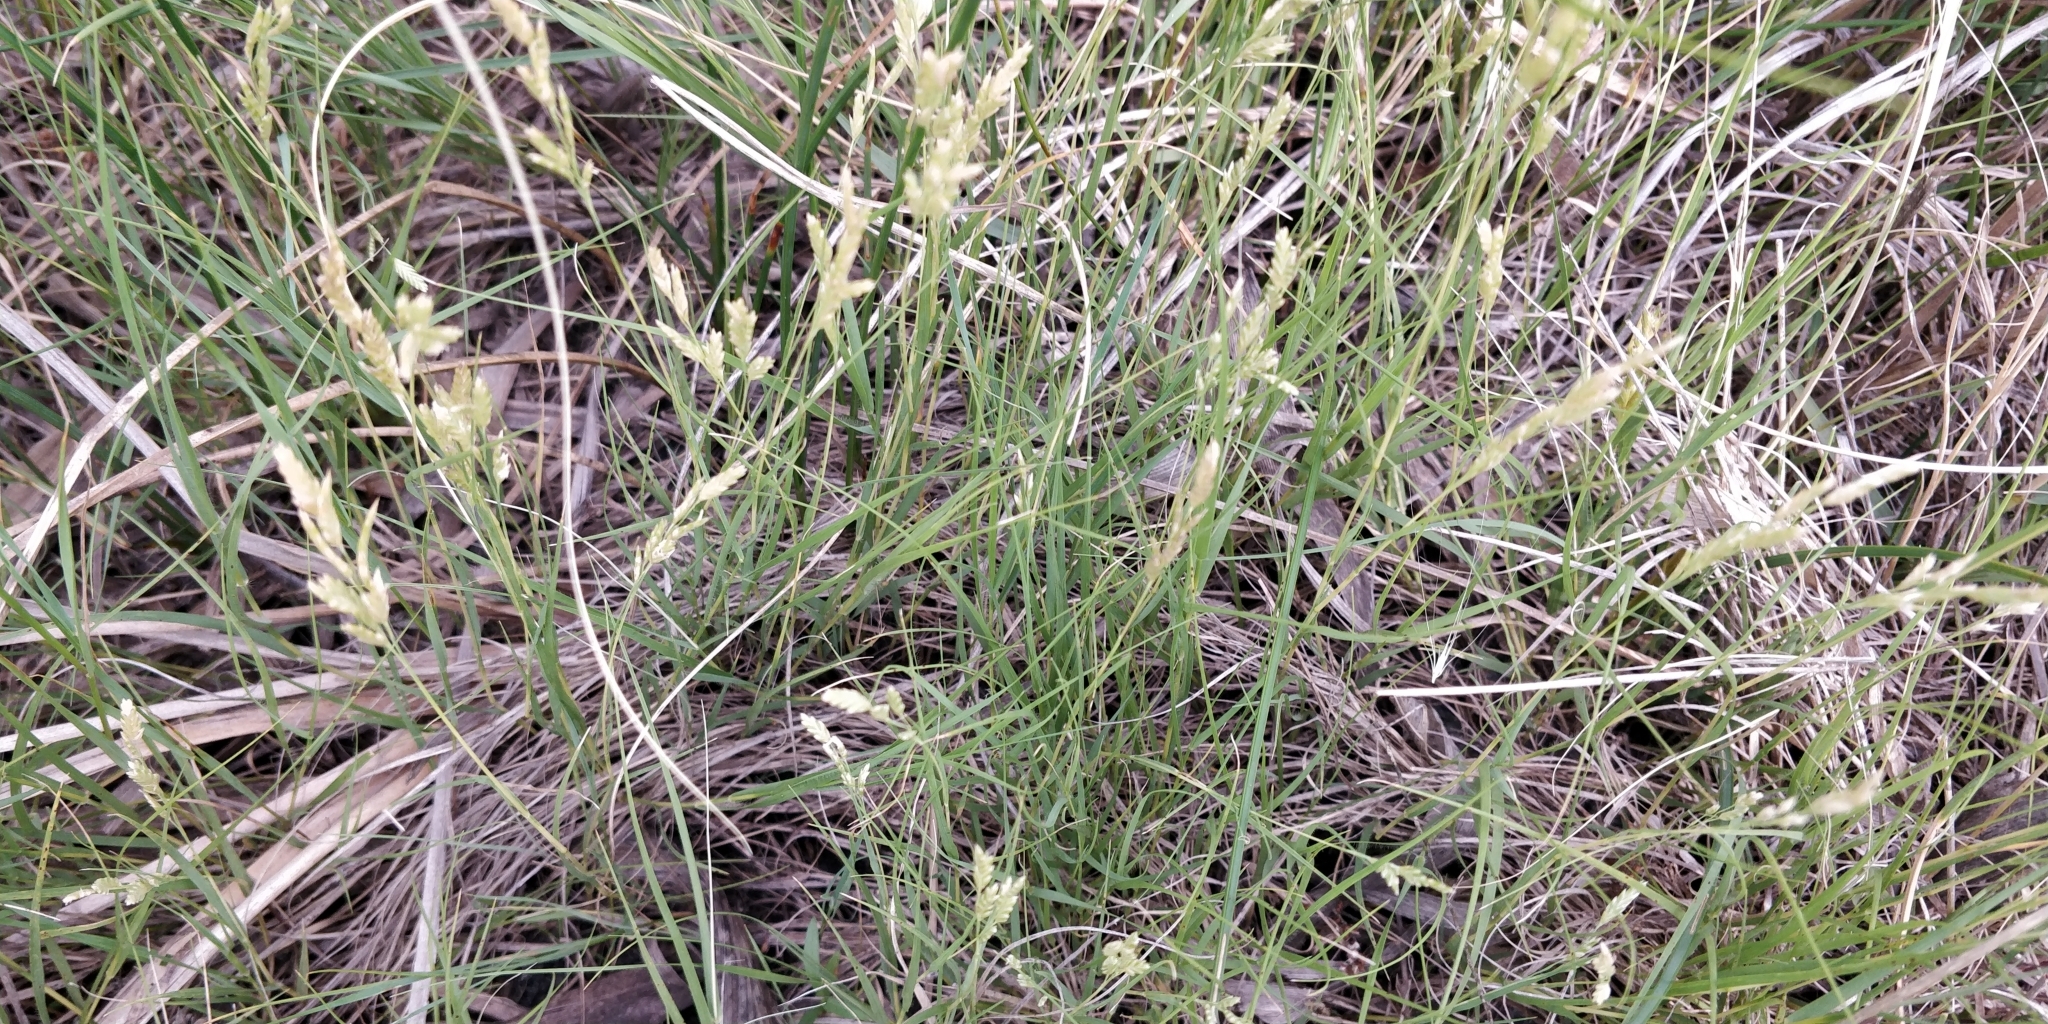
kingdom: Plantae
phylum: Tracheophyta
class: Liliopsida
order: Poales
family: Poaceae
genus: Distichlis
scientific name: Distichlis spicata
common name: Saltgrass
